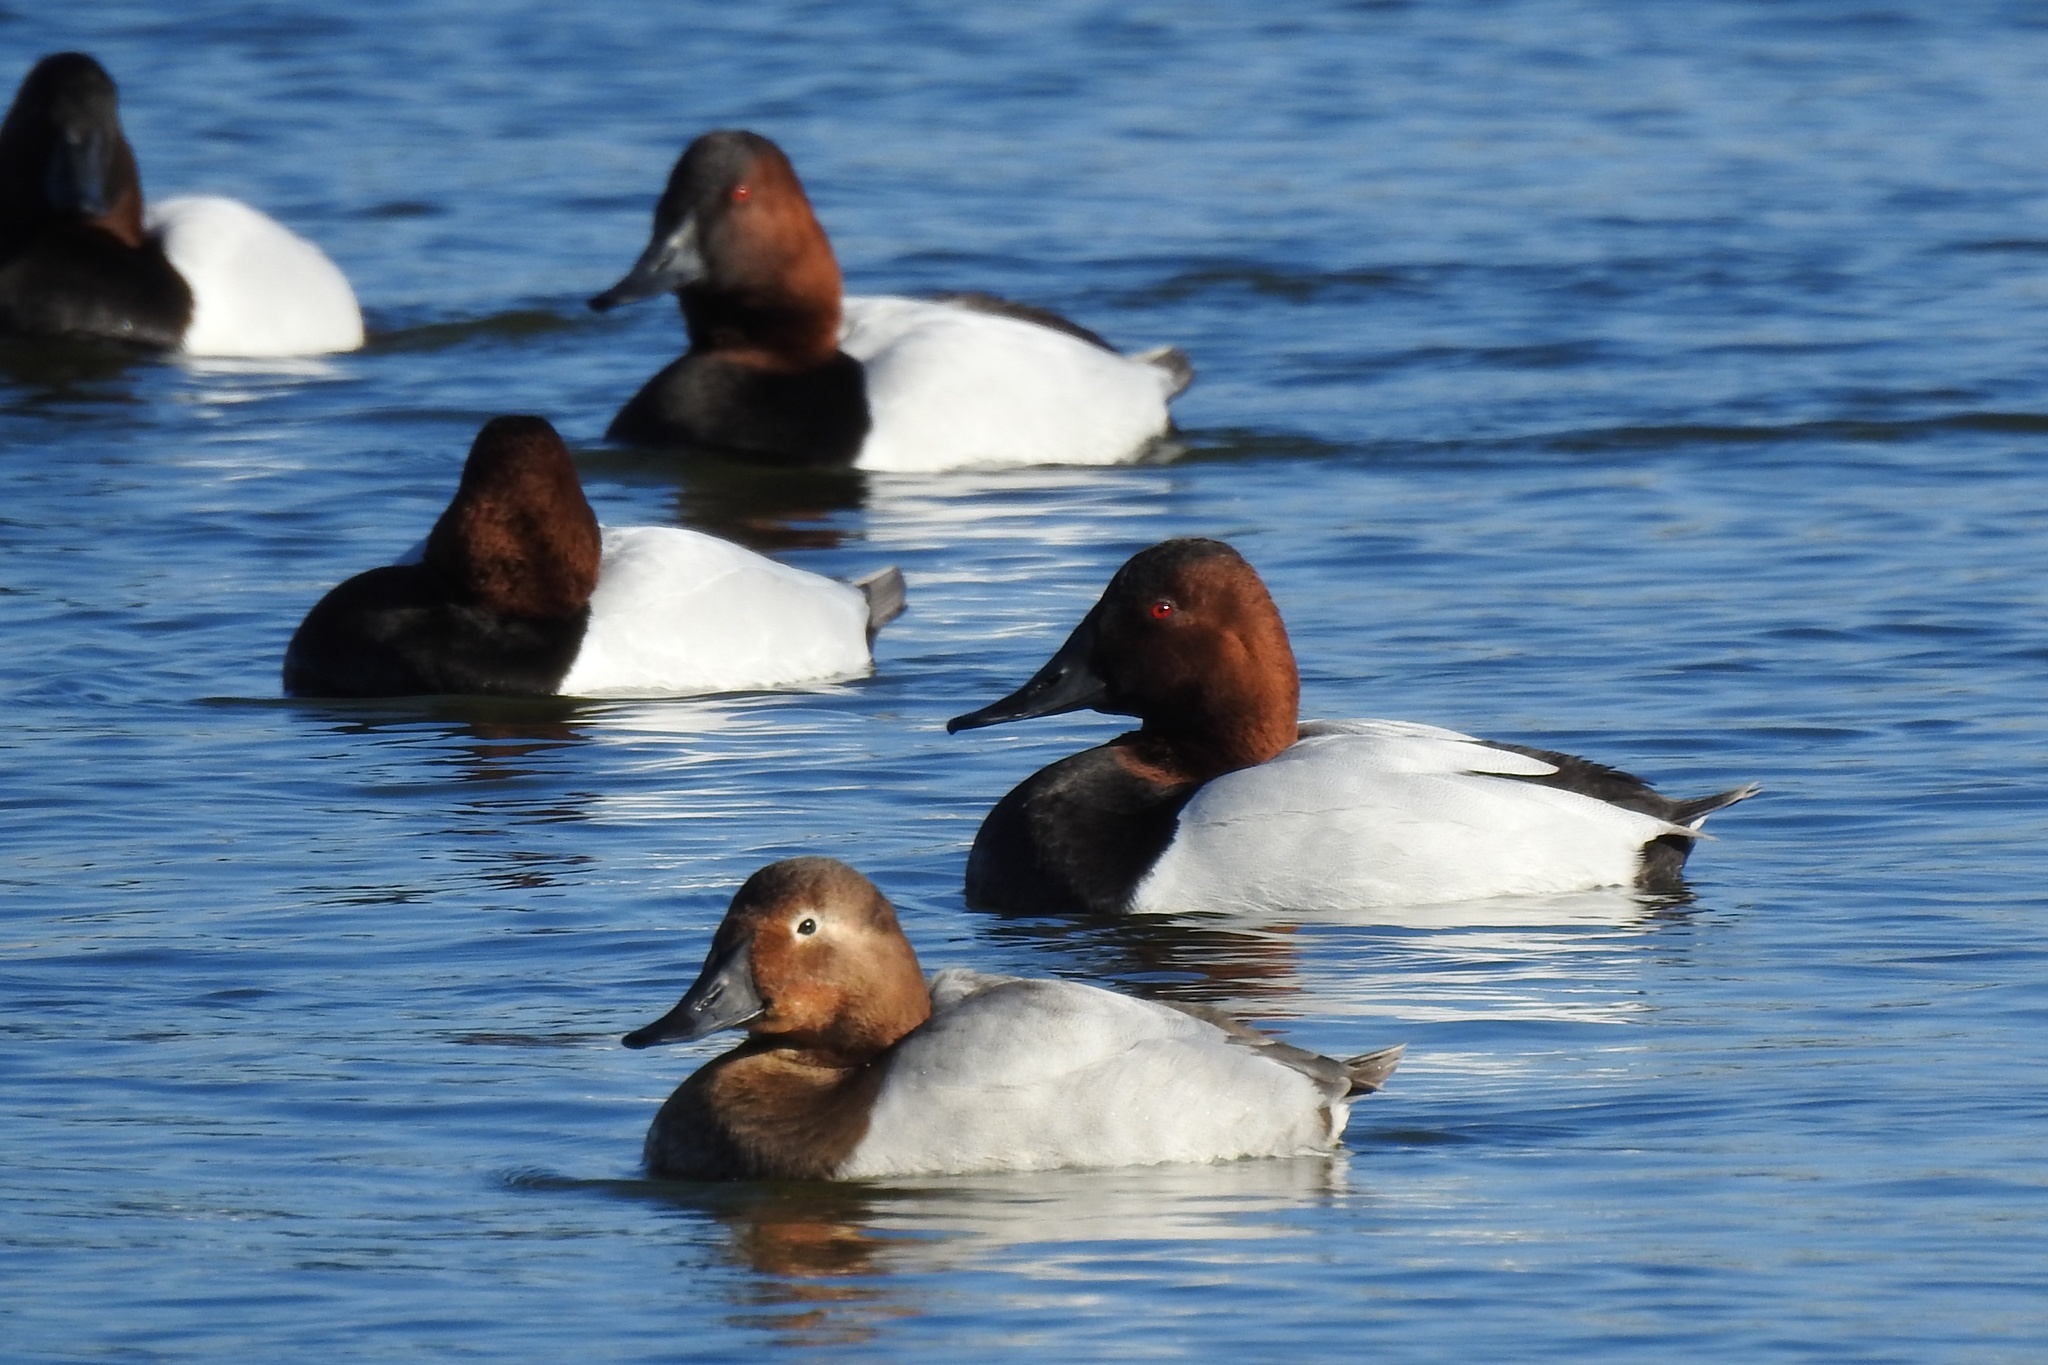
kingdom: Animalia
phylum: Chordata
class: Aves
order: Anseriformes
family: Anatidae
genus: Aythya
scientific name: Aythya valisineria
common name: Canvasback
